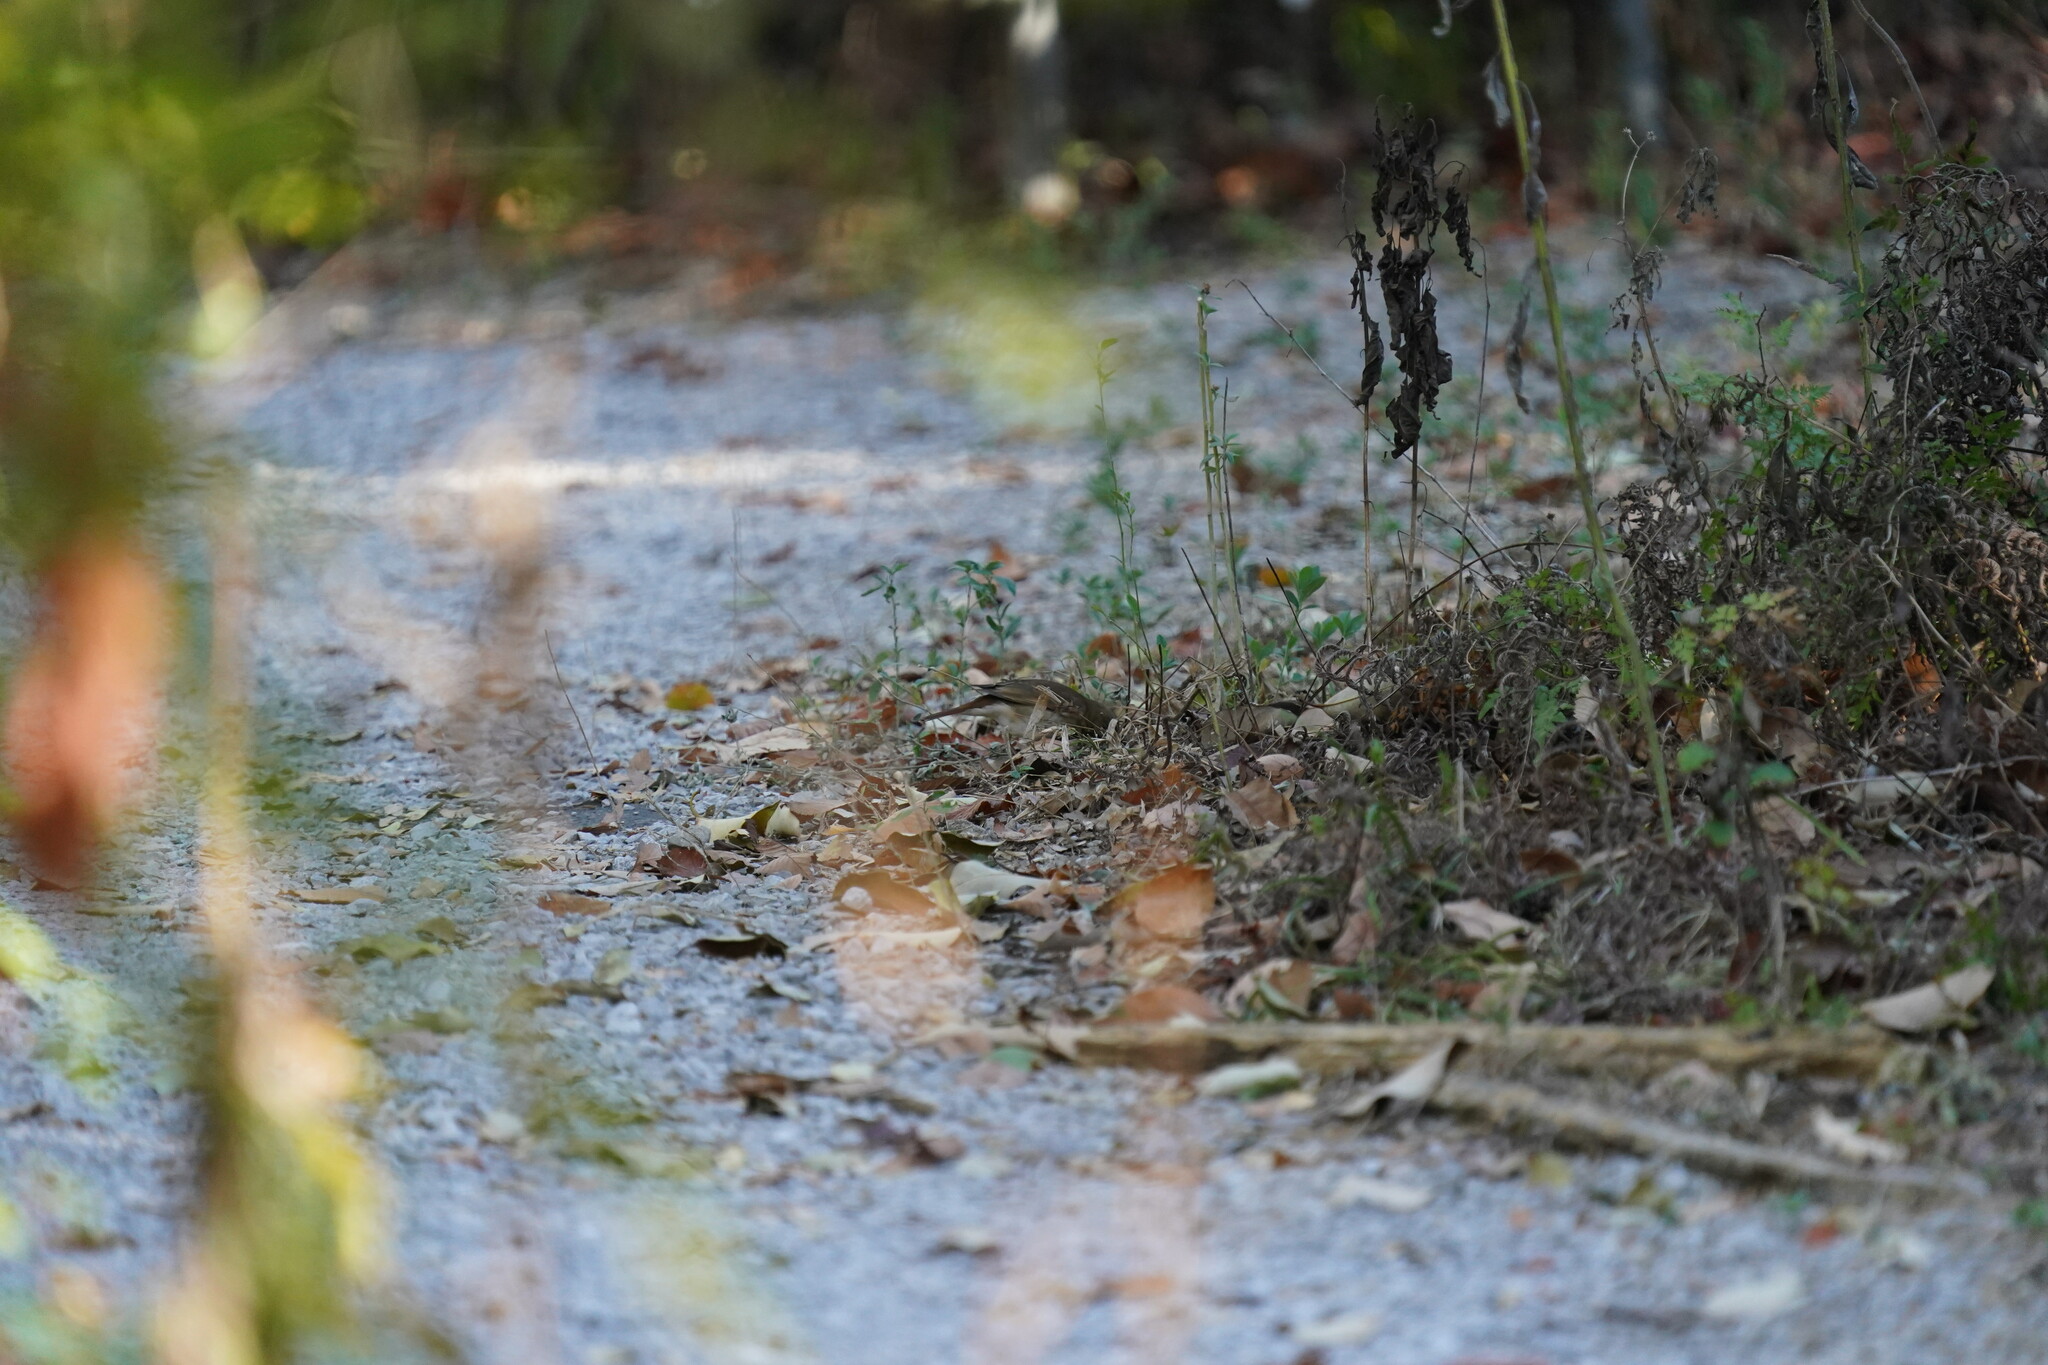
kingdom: Animalia
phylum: Chordata
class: Aves
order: Passeriformes
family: Turdidae
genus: Catharus
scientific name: Catharus guttatus
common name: Hermit thrush
